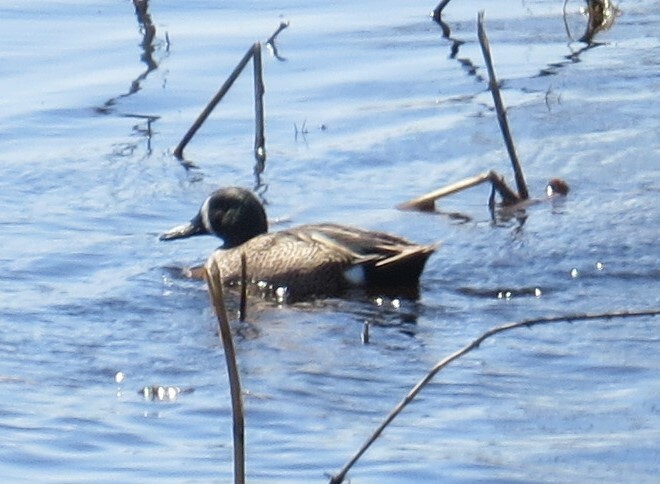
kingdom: Animalia
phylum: Chordata
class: Aves
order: Anseriformes
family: Anatidae
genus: Spatula
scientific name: Spatula discors
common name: Blue-winged teal
